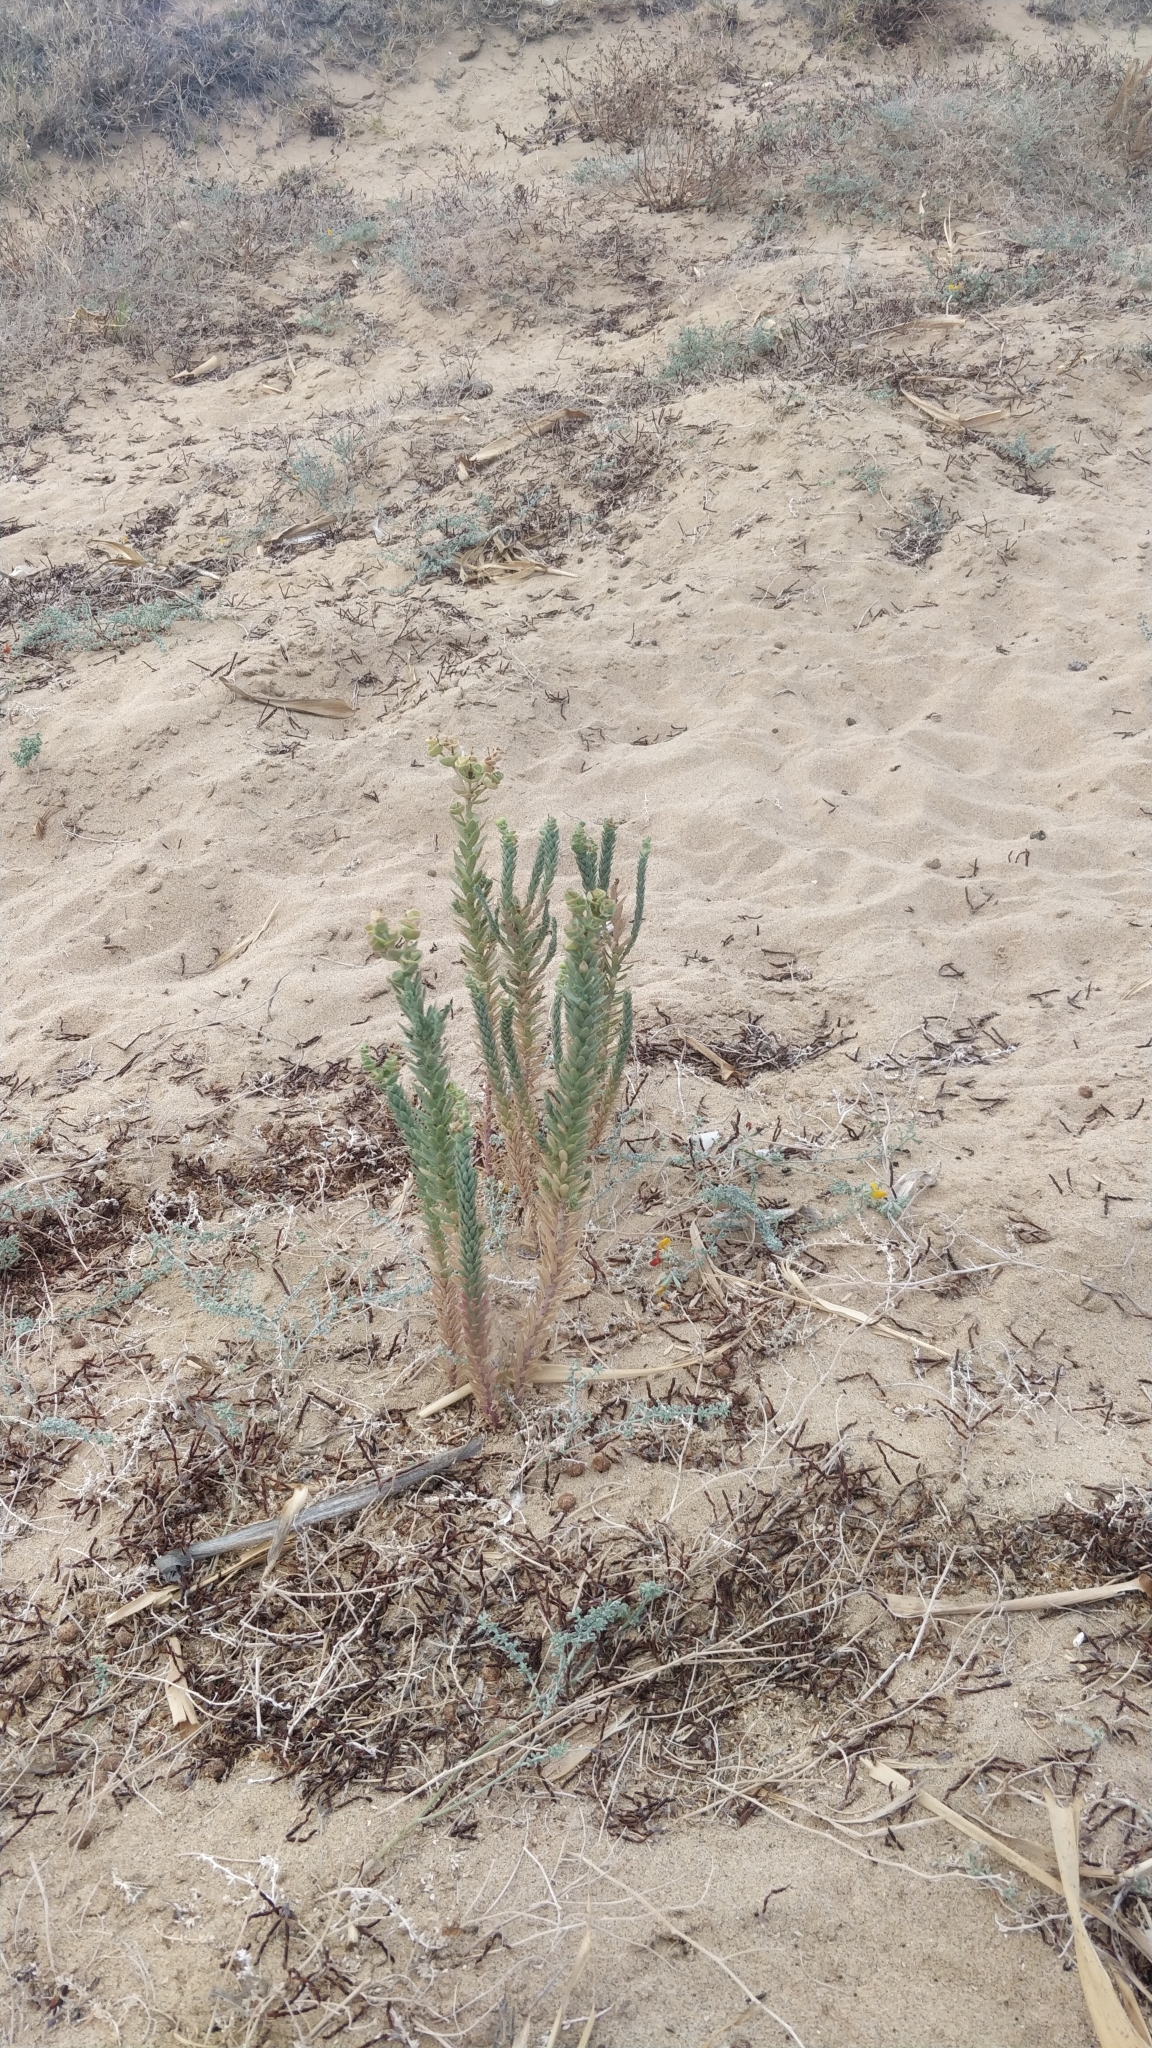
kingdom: Plantae
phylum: Tracheophyta
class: Magnoliopsida
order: Malpighiales
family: Euphorbiaceae
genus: Euphorbia
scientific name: Euphorbia paralias
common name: Sea spurge
